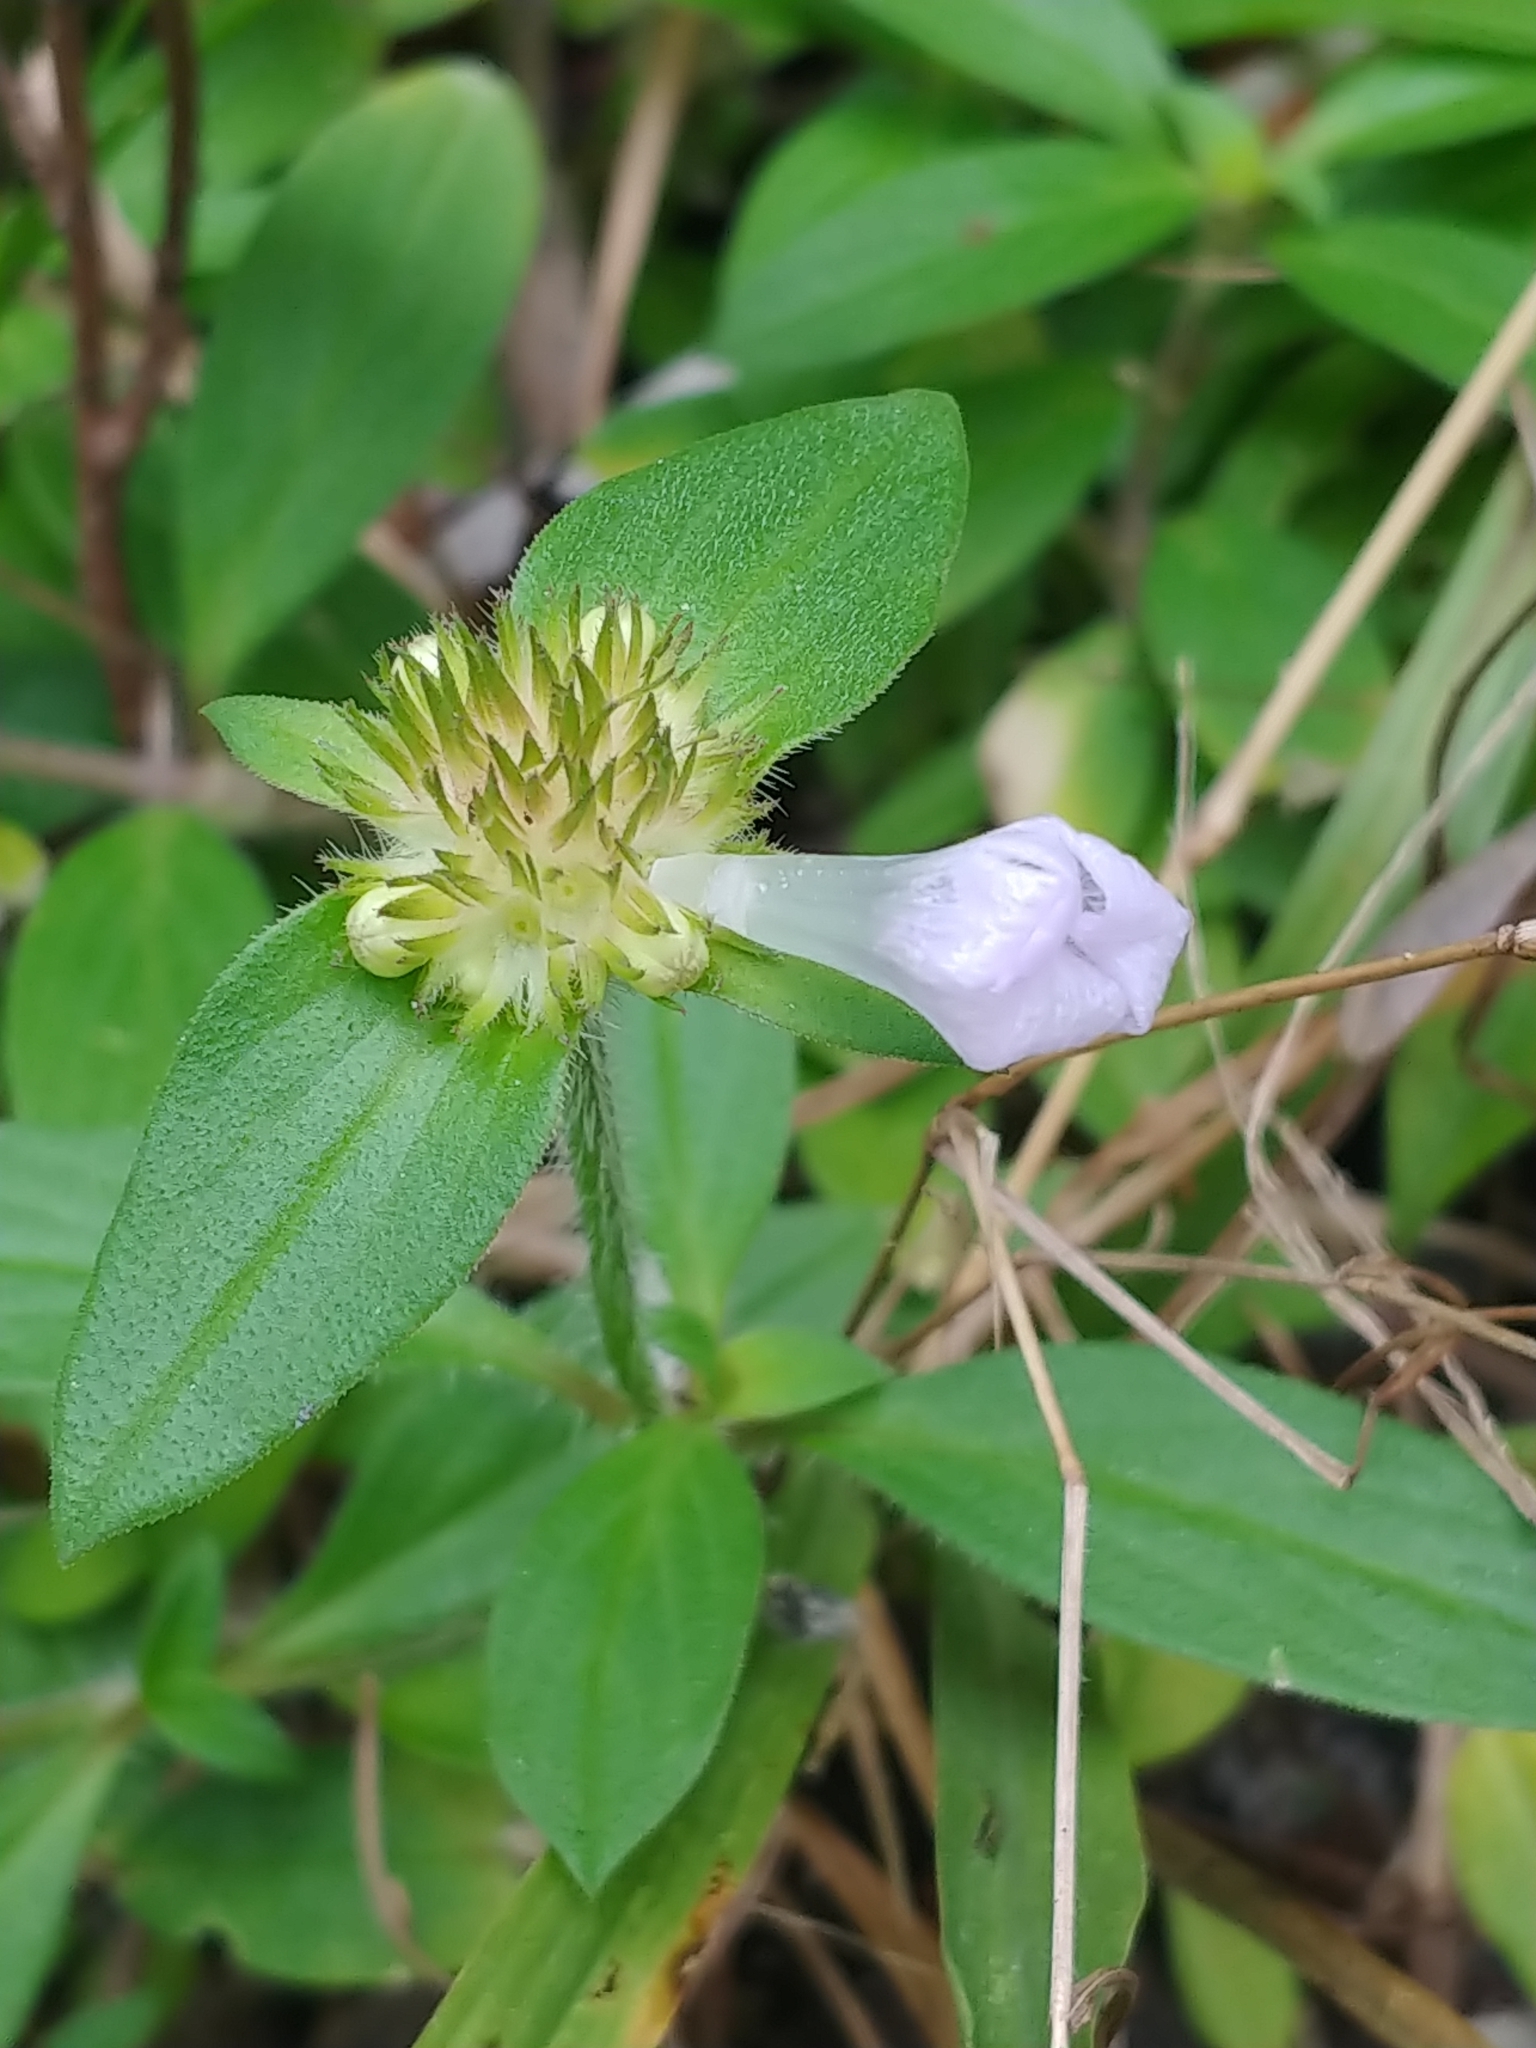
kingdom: Plantae
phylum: Tracheophyta
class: Magnoliopsida
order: Gentianales
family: Rubiaceae
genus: Richardia
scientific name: Richardia grandiflora
